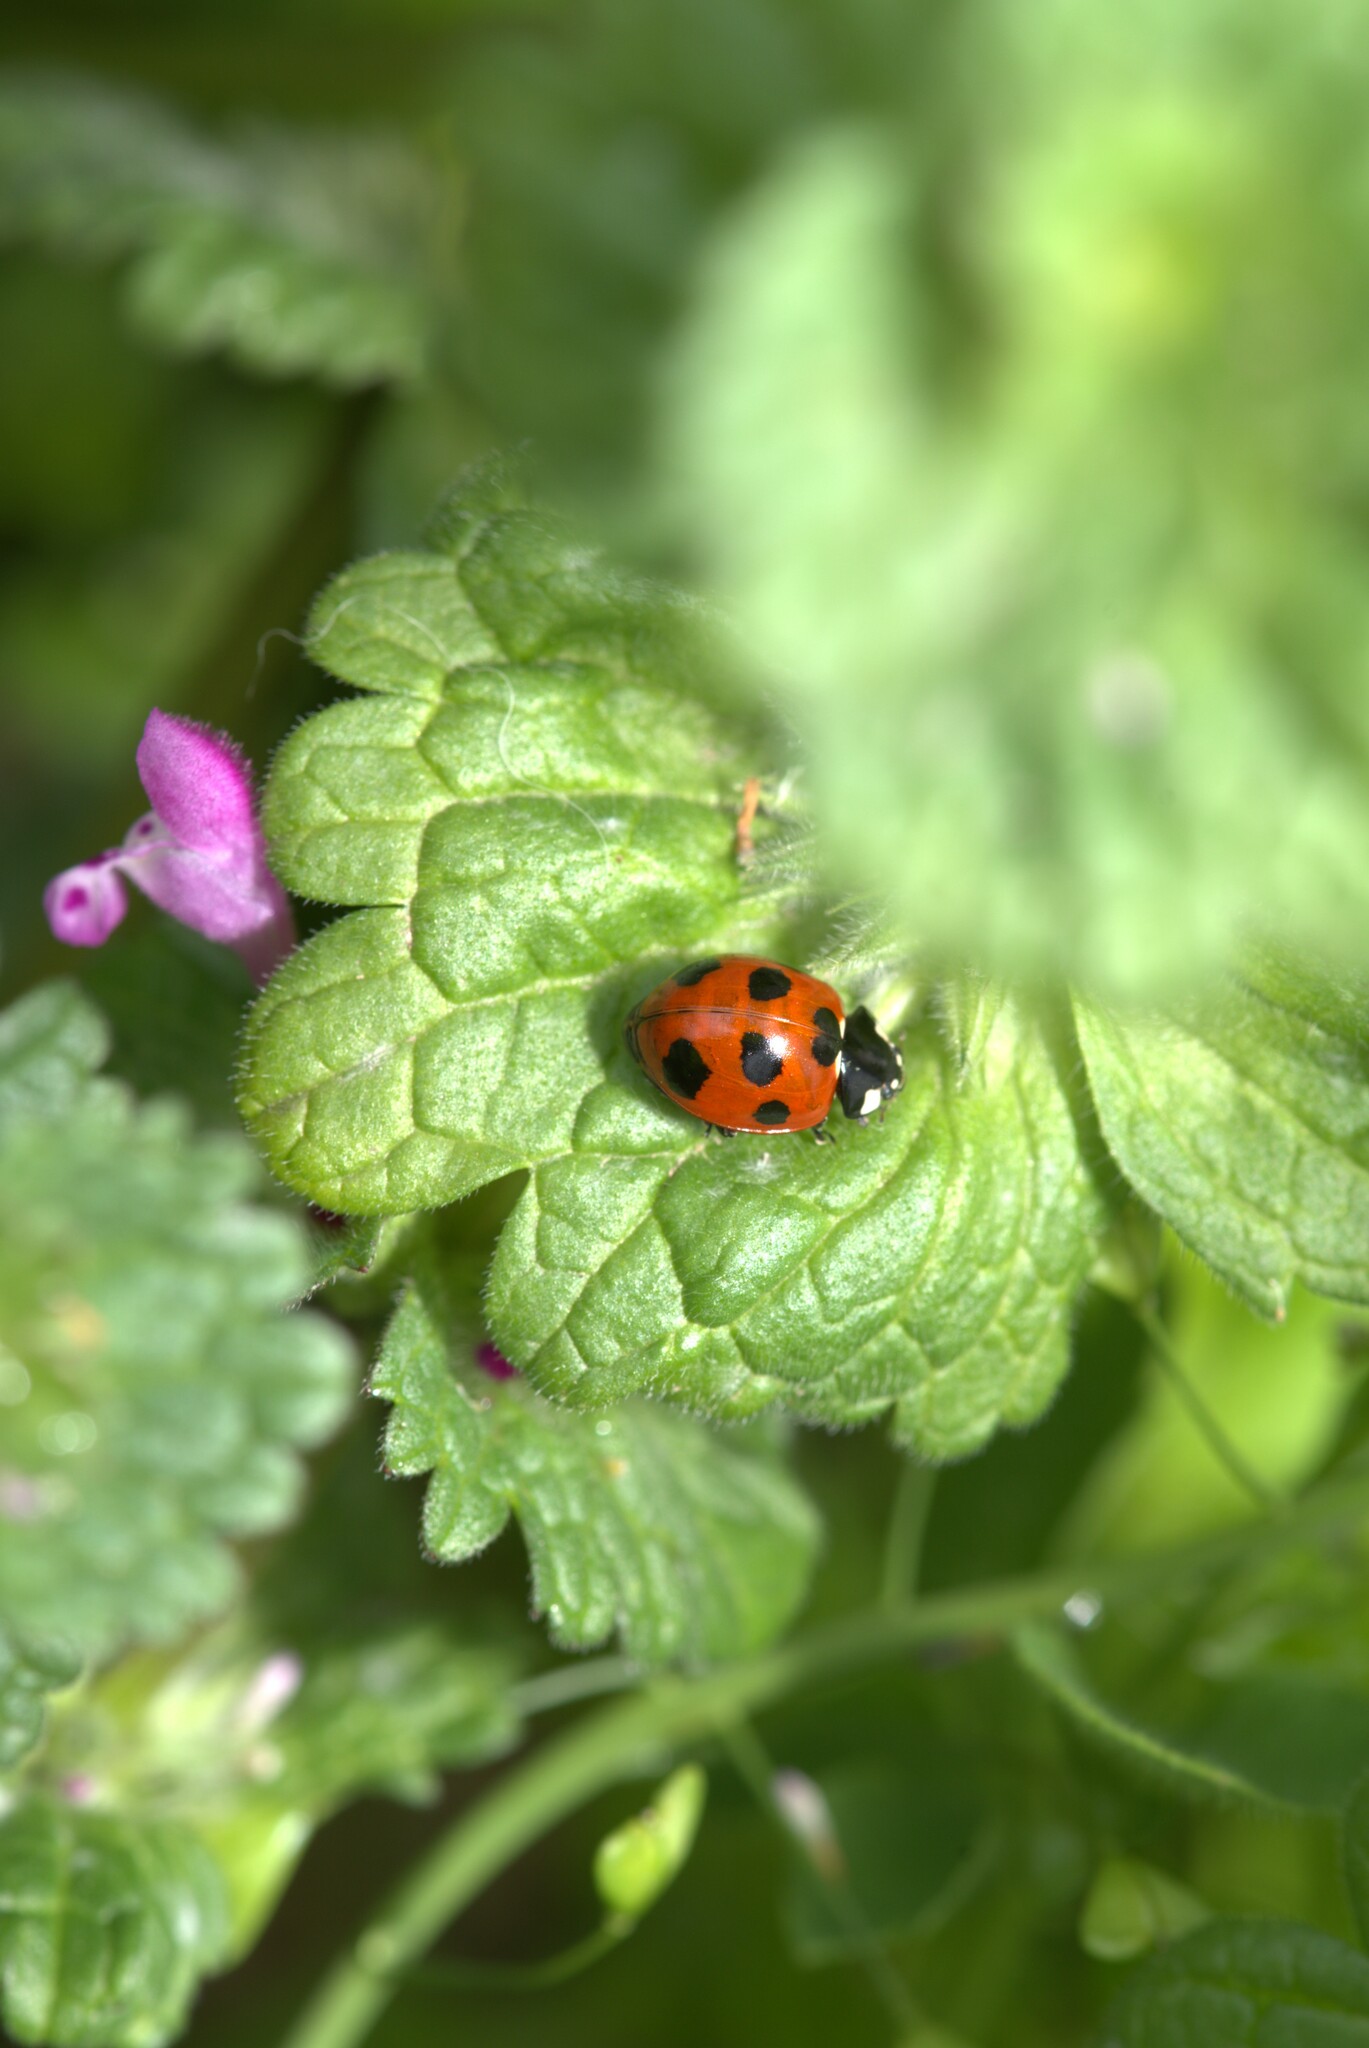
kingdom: Animalia
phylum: Arthropoda
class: Insecta
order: Coleoptera
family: Coccinellidae
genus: Coccinella
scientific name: Coccinella septempunctata
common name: Sevenspotted lady beetle
